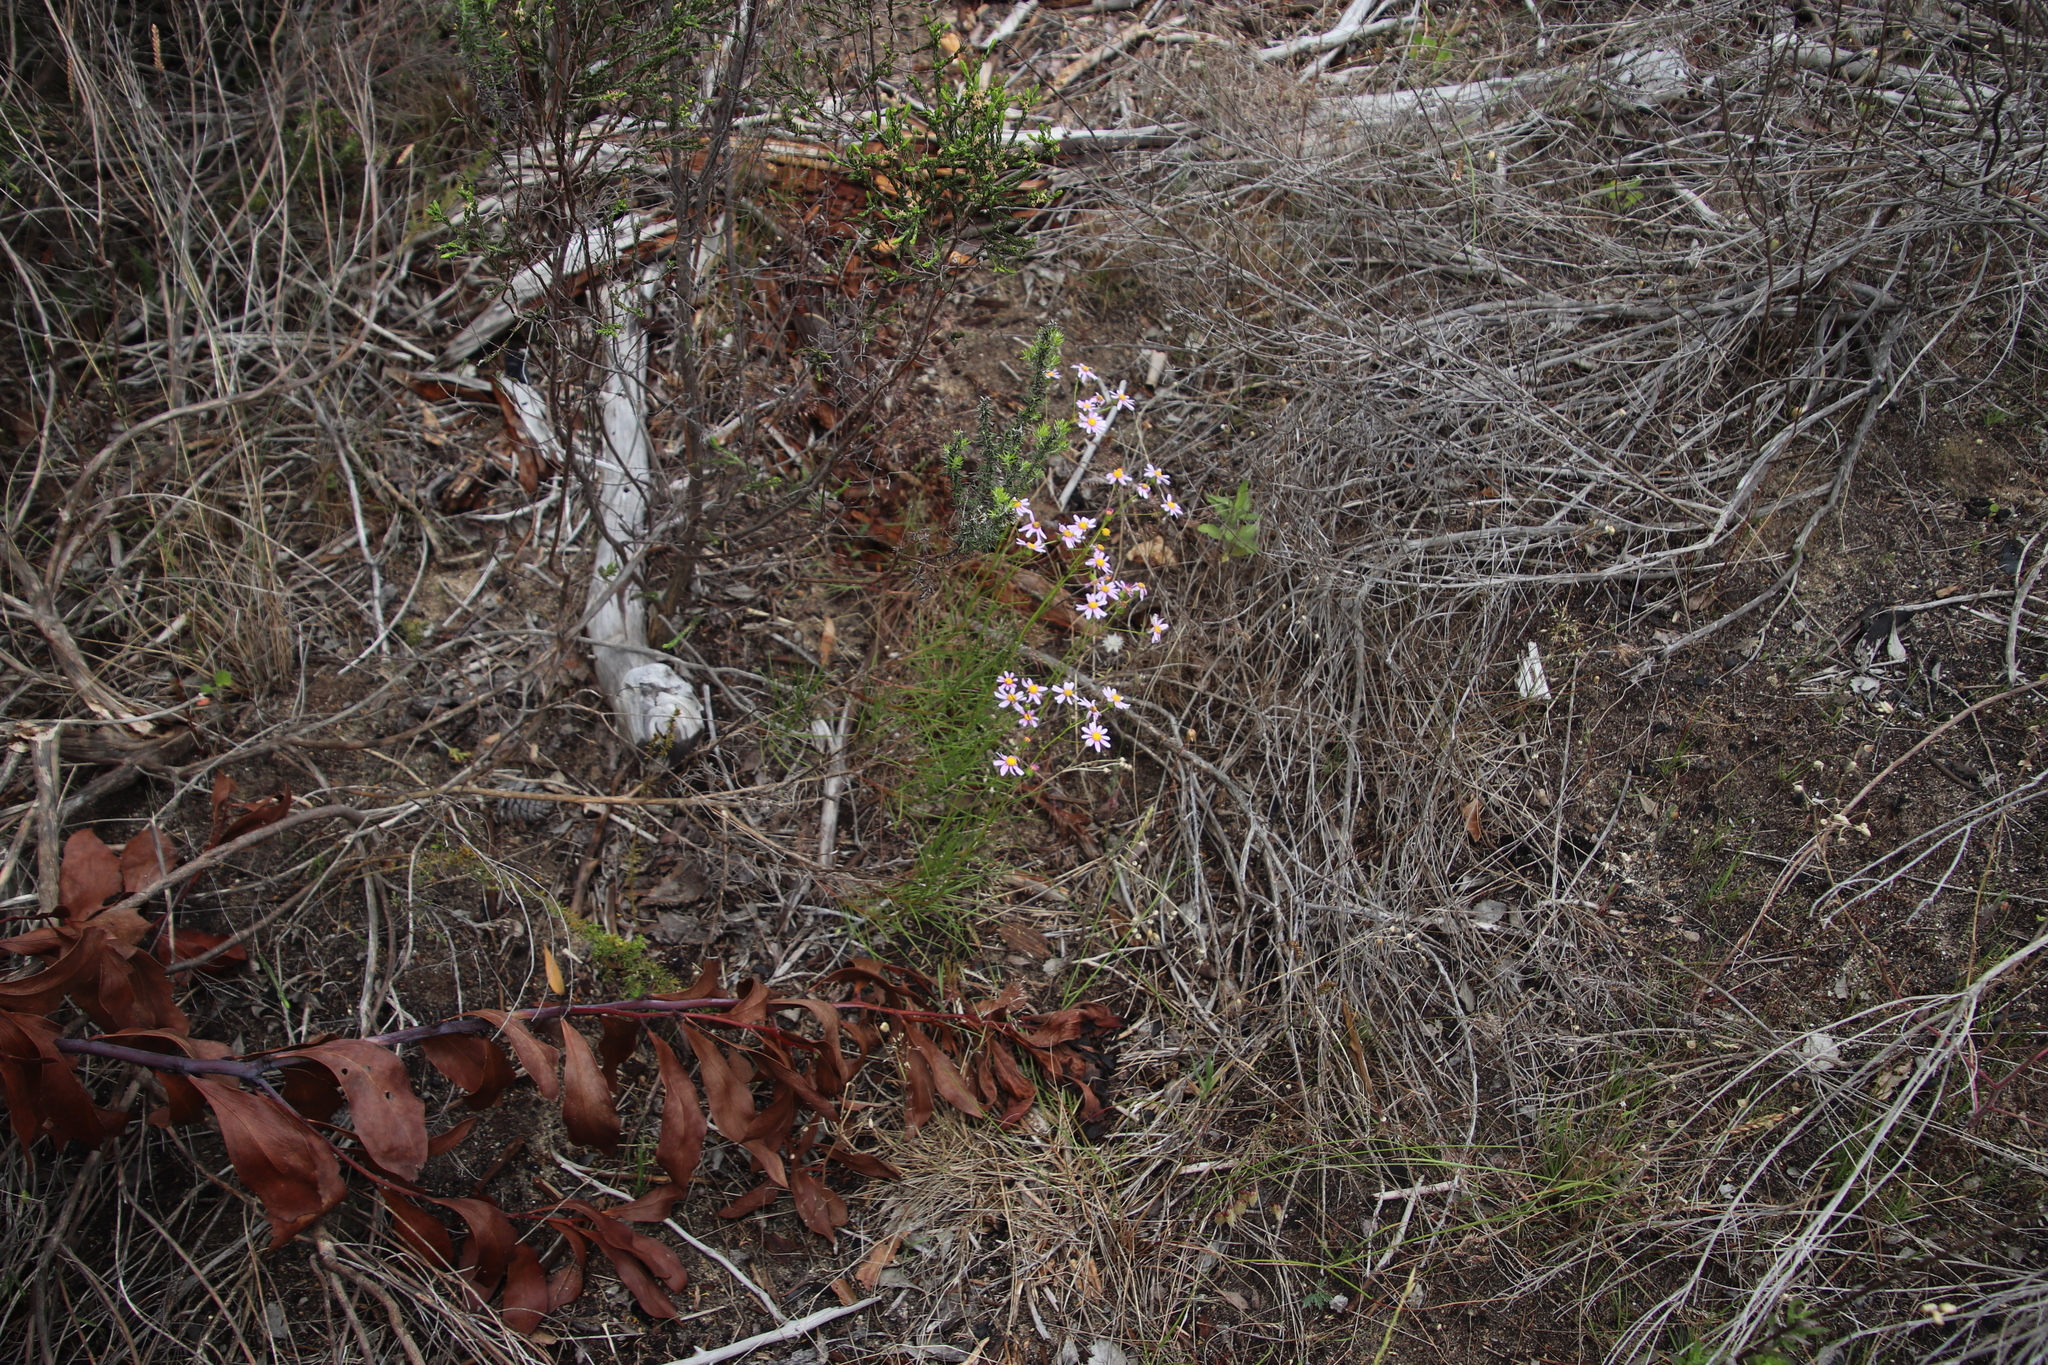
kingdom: Plantae
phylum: Tracheophyta
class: Magnoliopsida
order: Asterales
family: Asteraceae
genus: Senecio
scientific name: Senecio umbellatus
